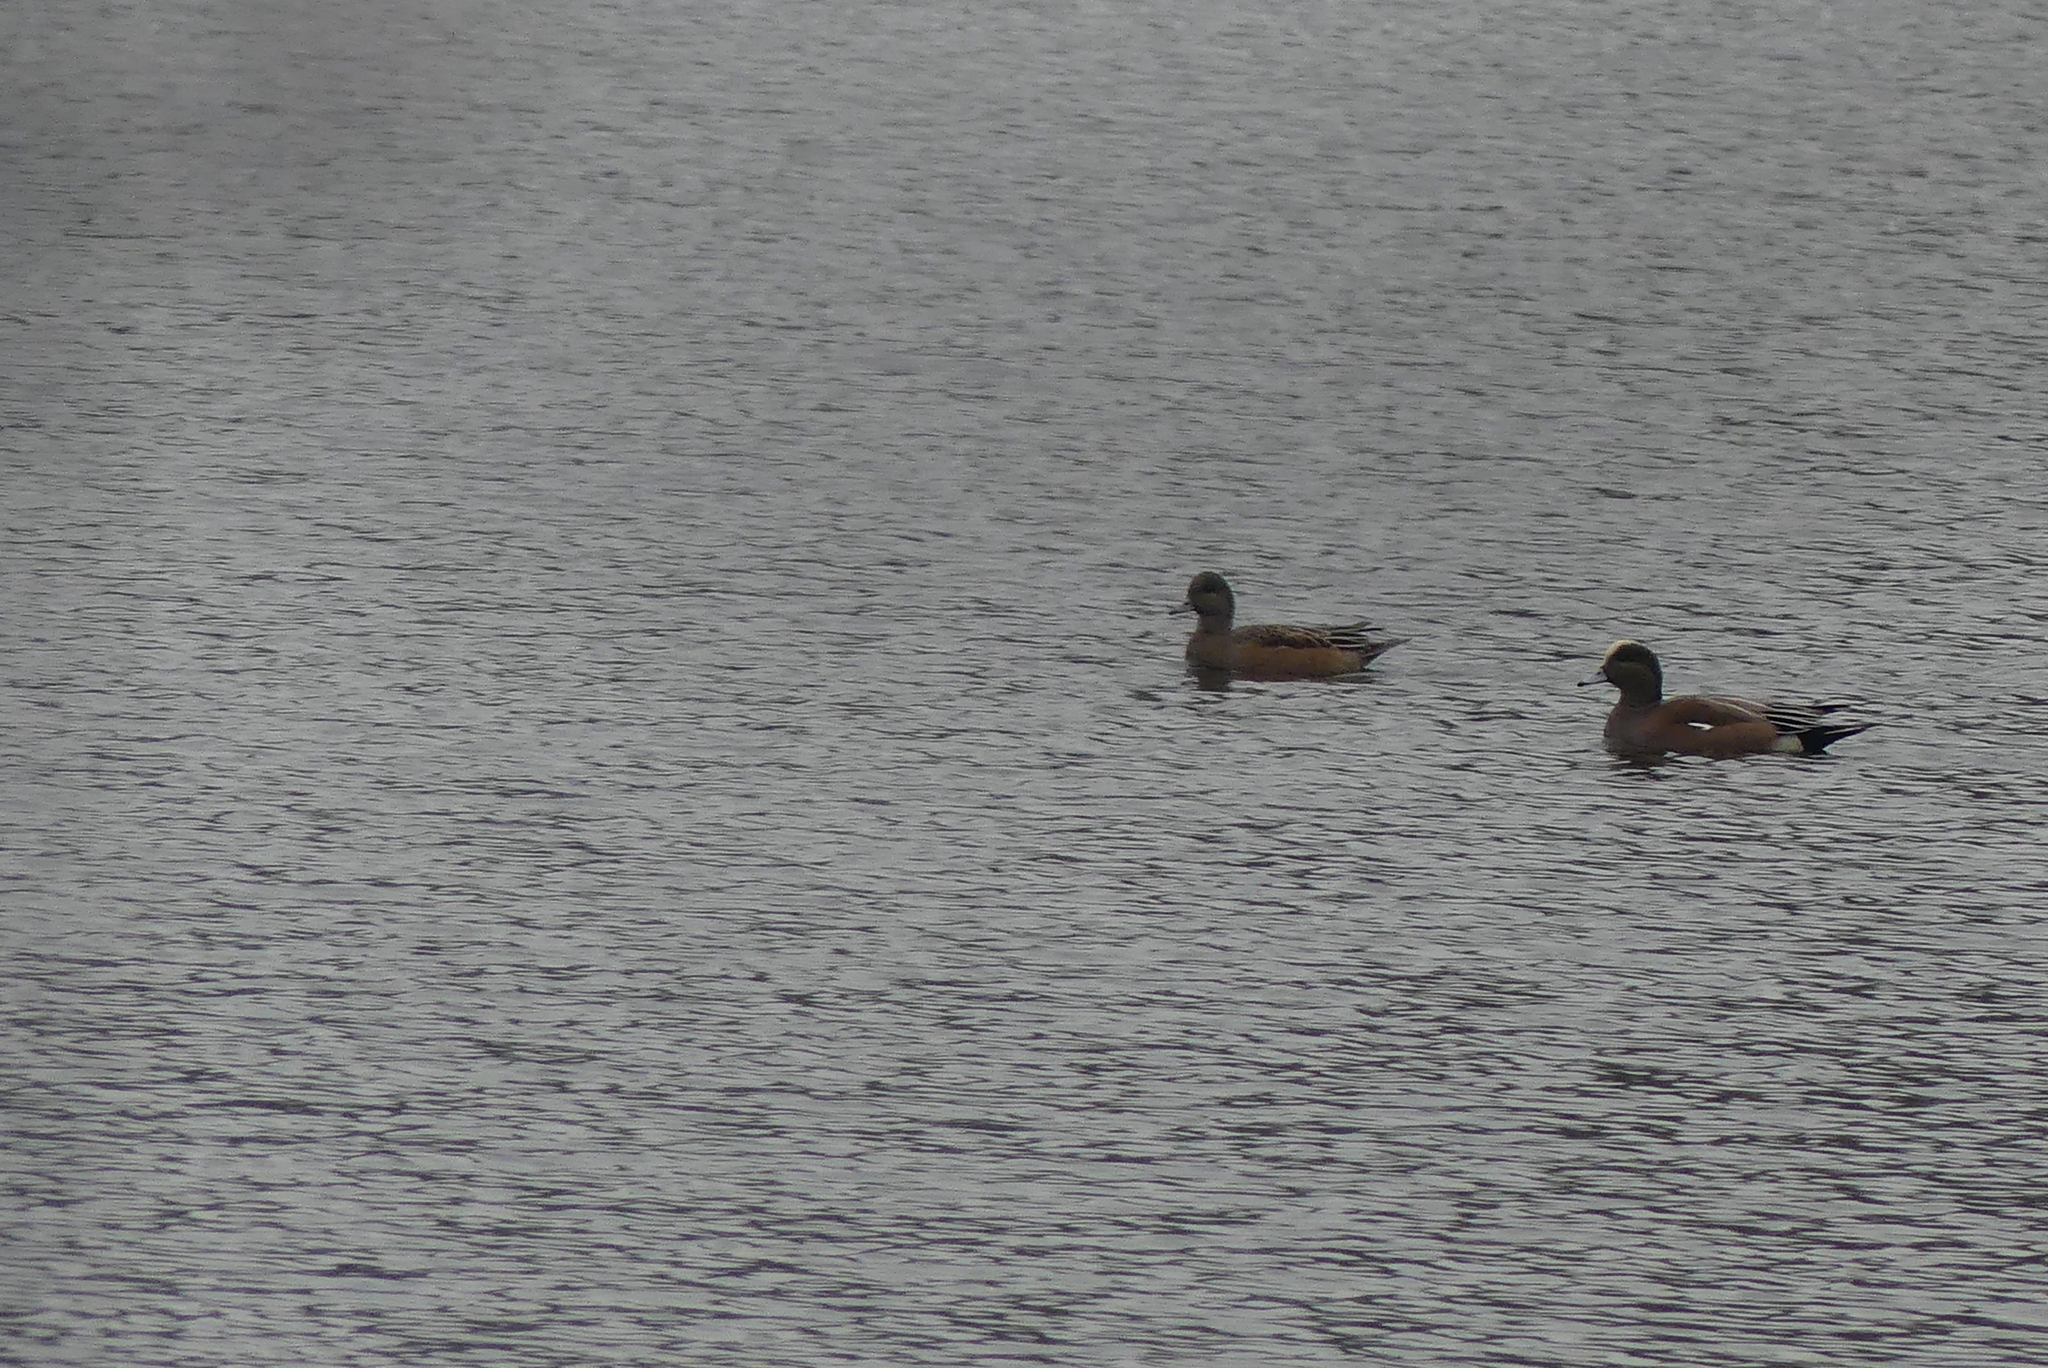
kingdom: Animalia
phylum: Chordata
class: Aves
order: Anseriformes
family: Anatidae
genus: Mareca
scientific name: Mareca americana
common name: American wigeon
